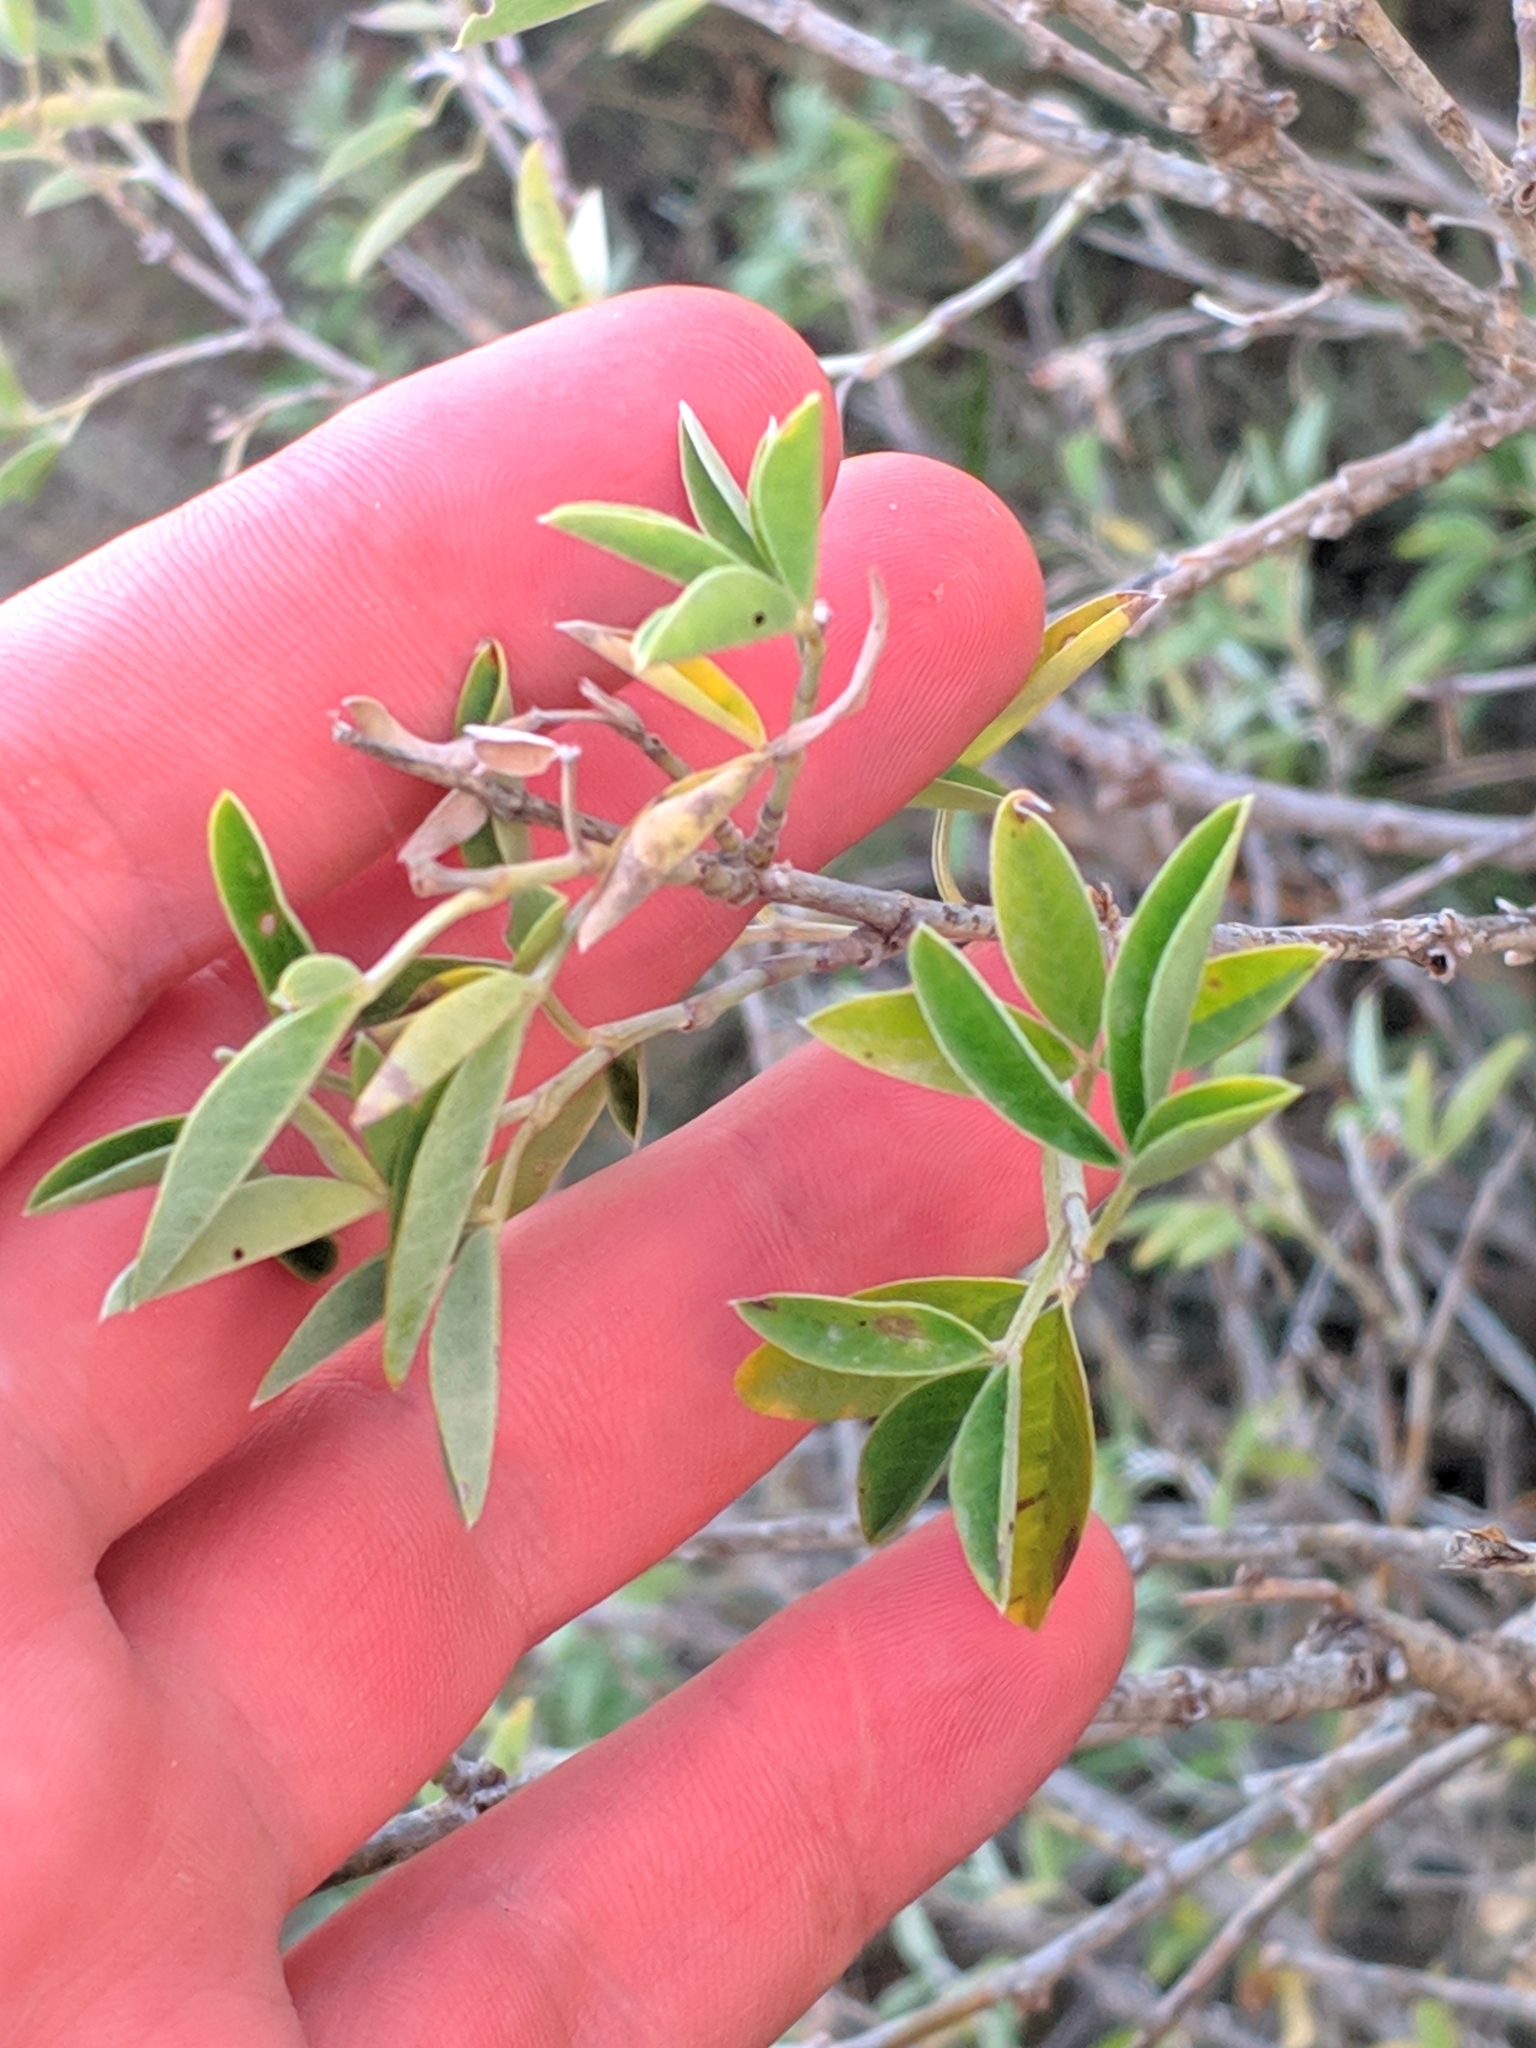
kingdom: Plantae
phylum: Tracheophyta
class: Magnoliopsida
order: Fabales
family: Fabaceae
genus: Anagyris
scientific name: Anagyris foetida
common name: Stinking bean trefoil
